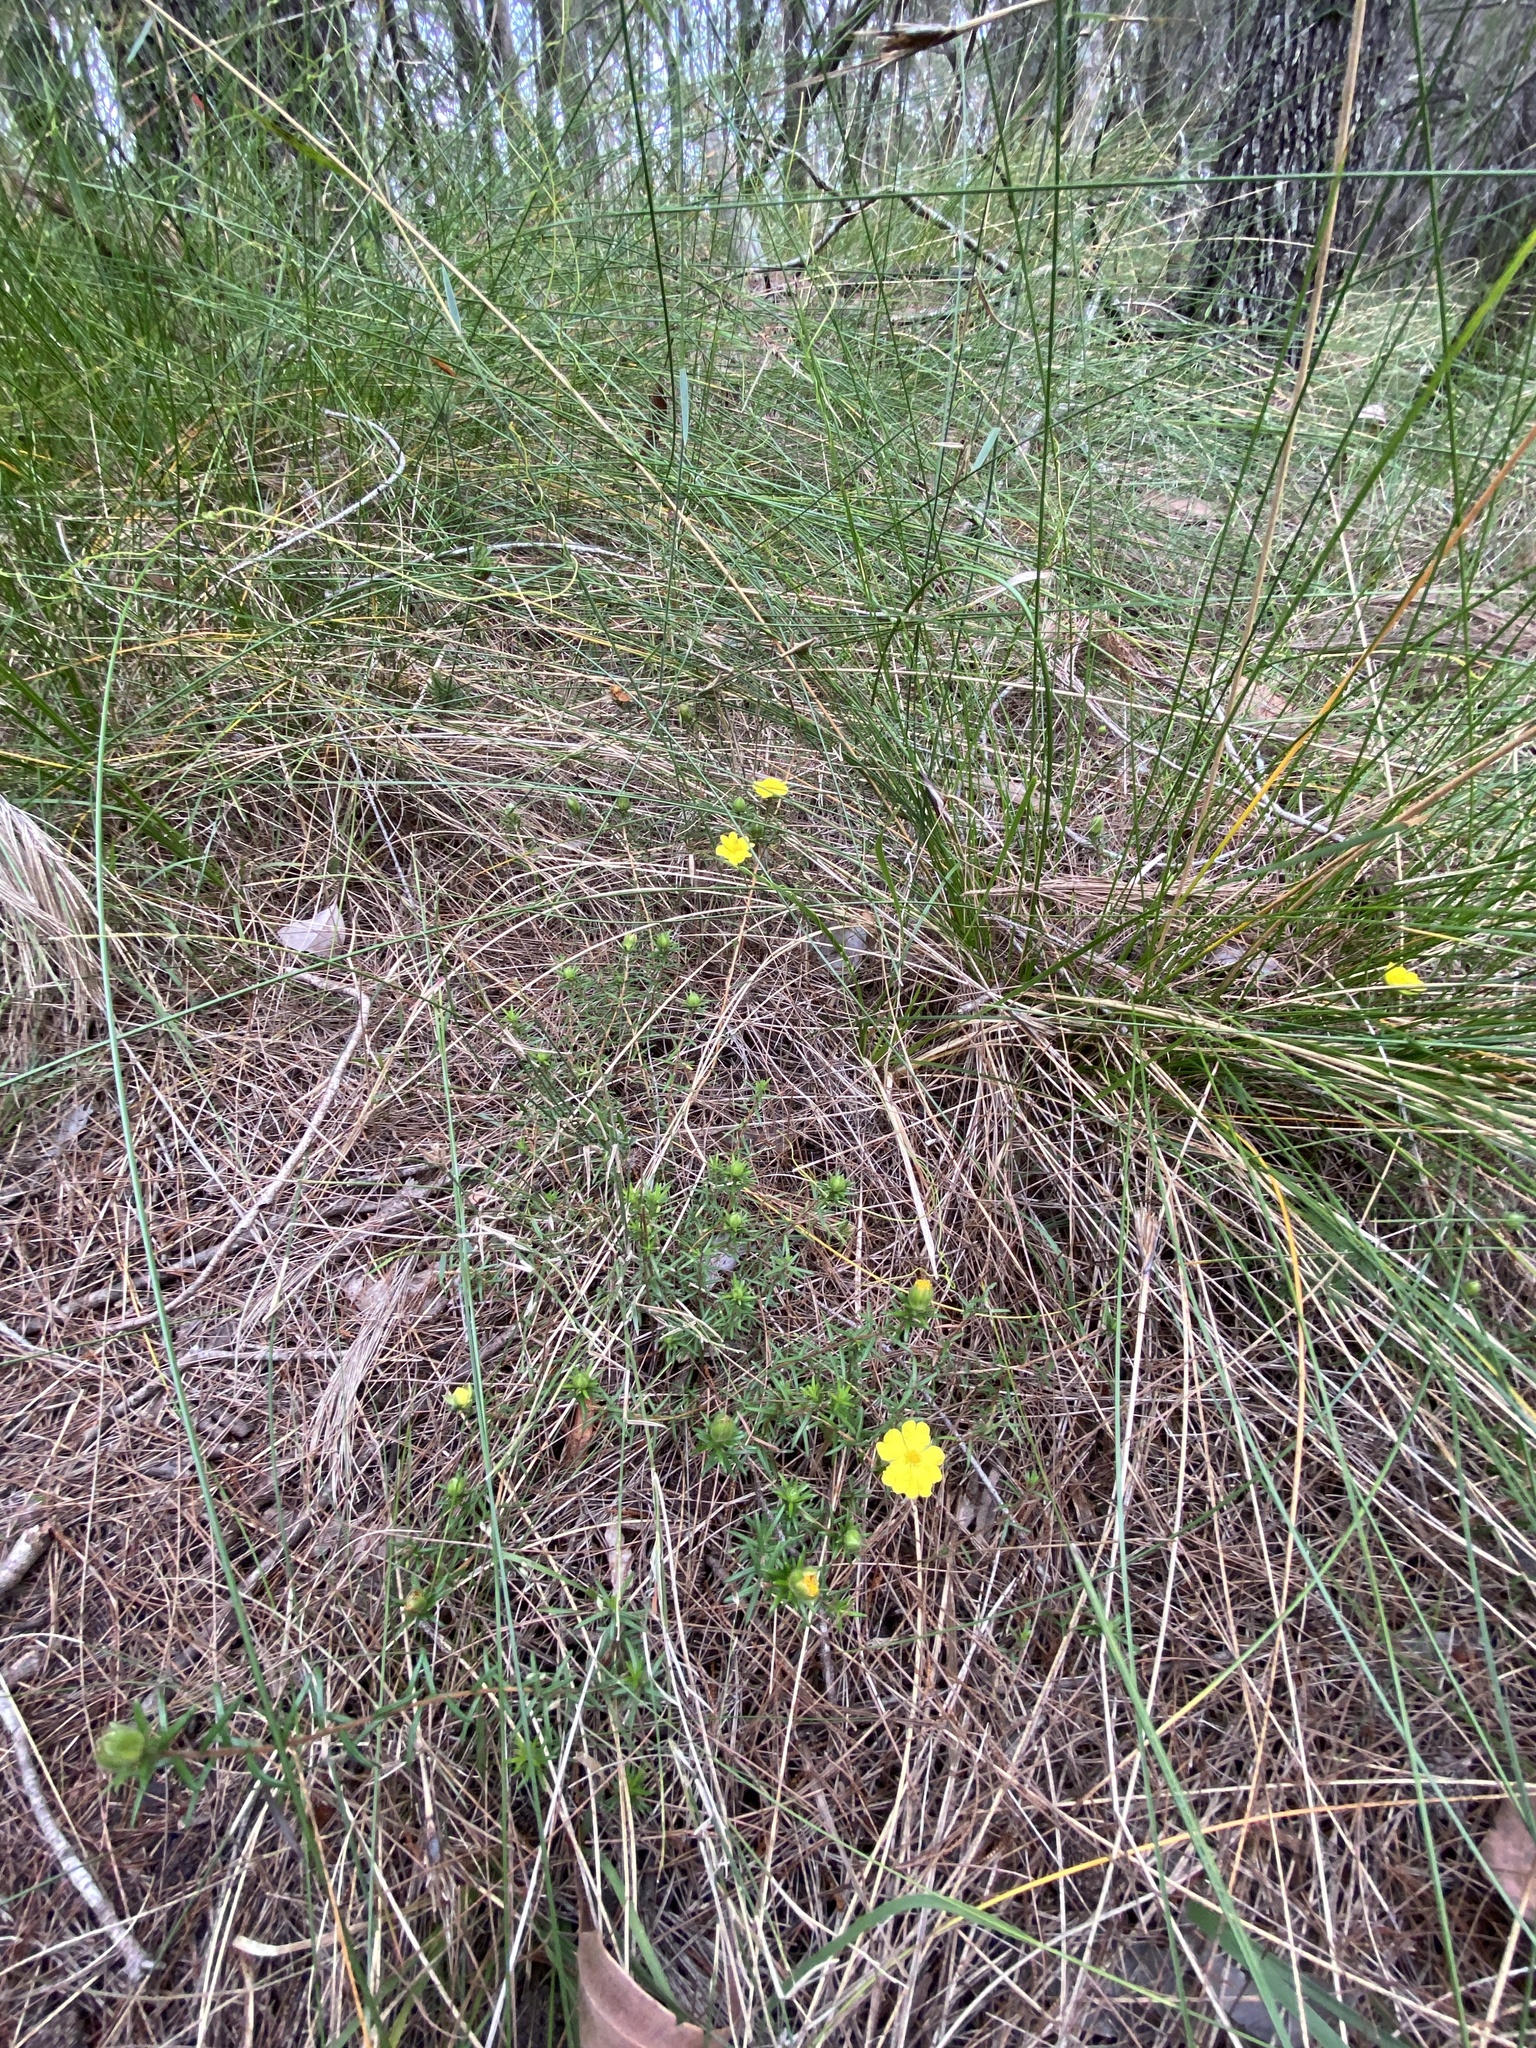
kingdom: Plantae
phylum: Tracheophyta
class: Magnoliopsida
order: Dilleniales
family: Dilleniaceae
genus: Hibbertia
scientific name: Hibbertia stricta
